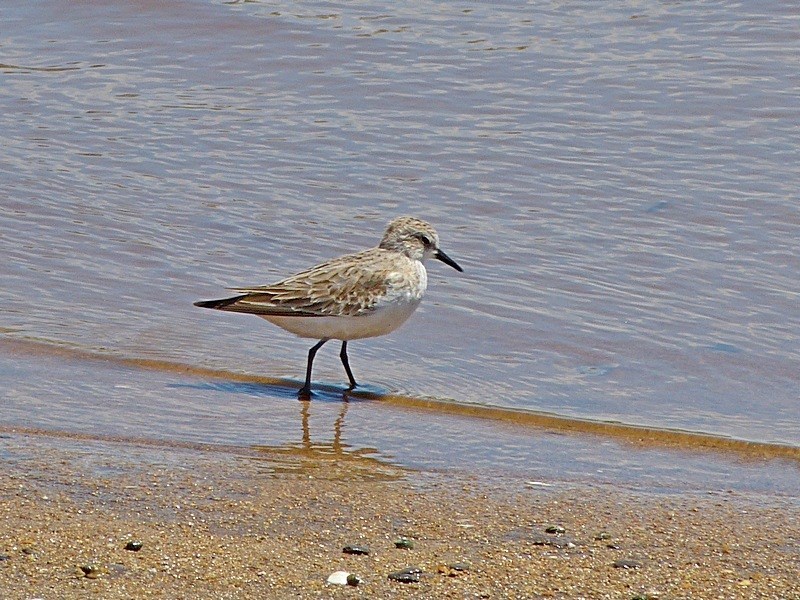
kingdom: Animalia
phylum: Chordata
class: Aves
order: Charadriiformes
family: Scolopacidae
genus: Calidris
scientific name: Calidris ruficollis
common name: Red-necked stint
